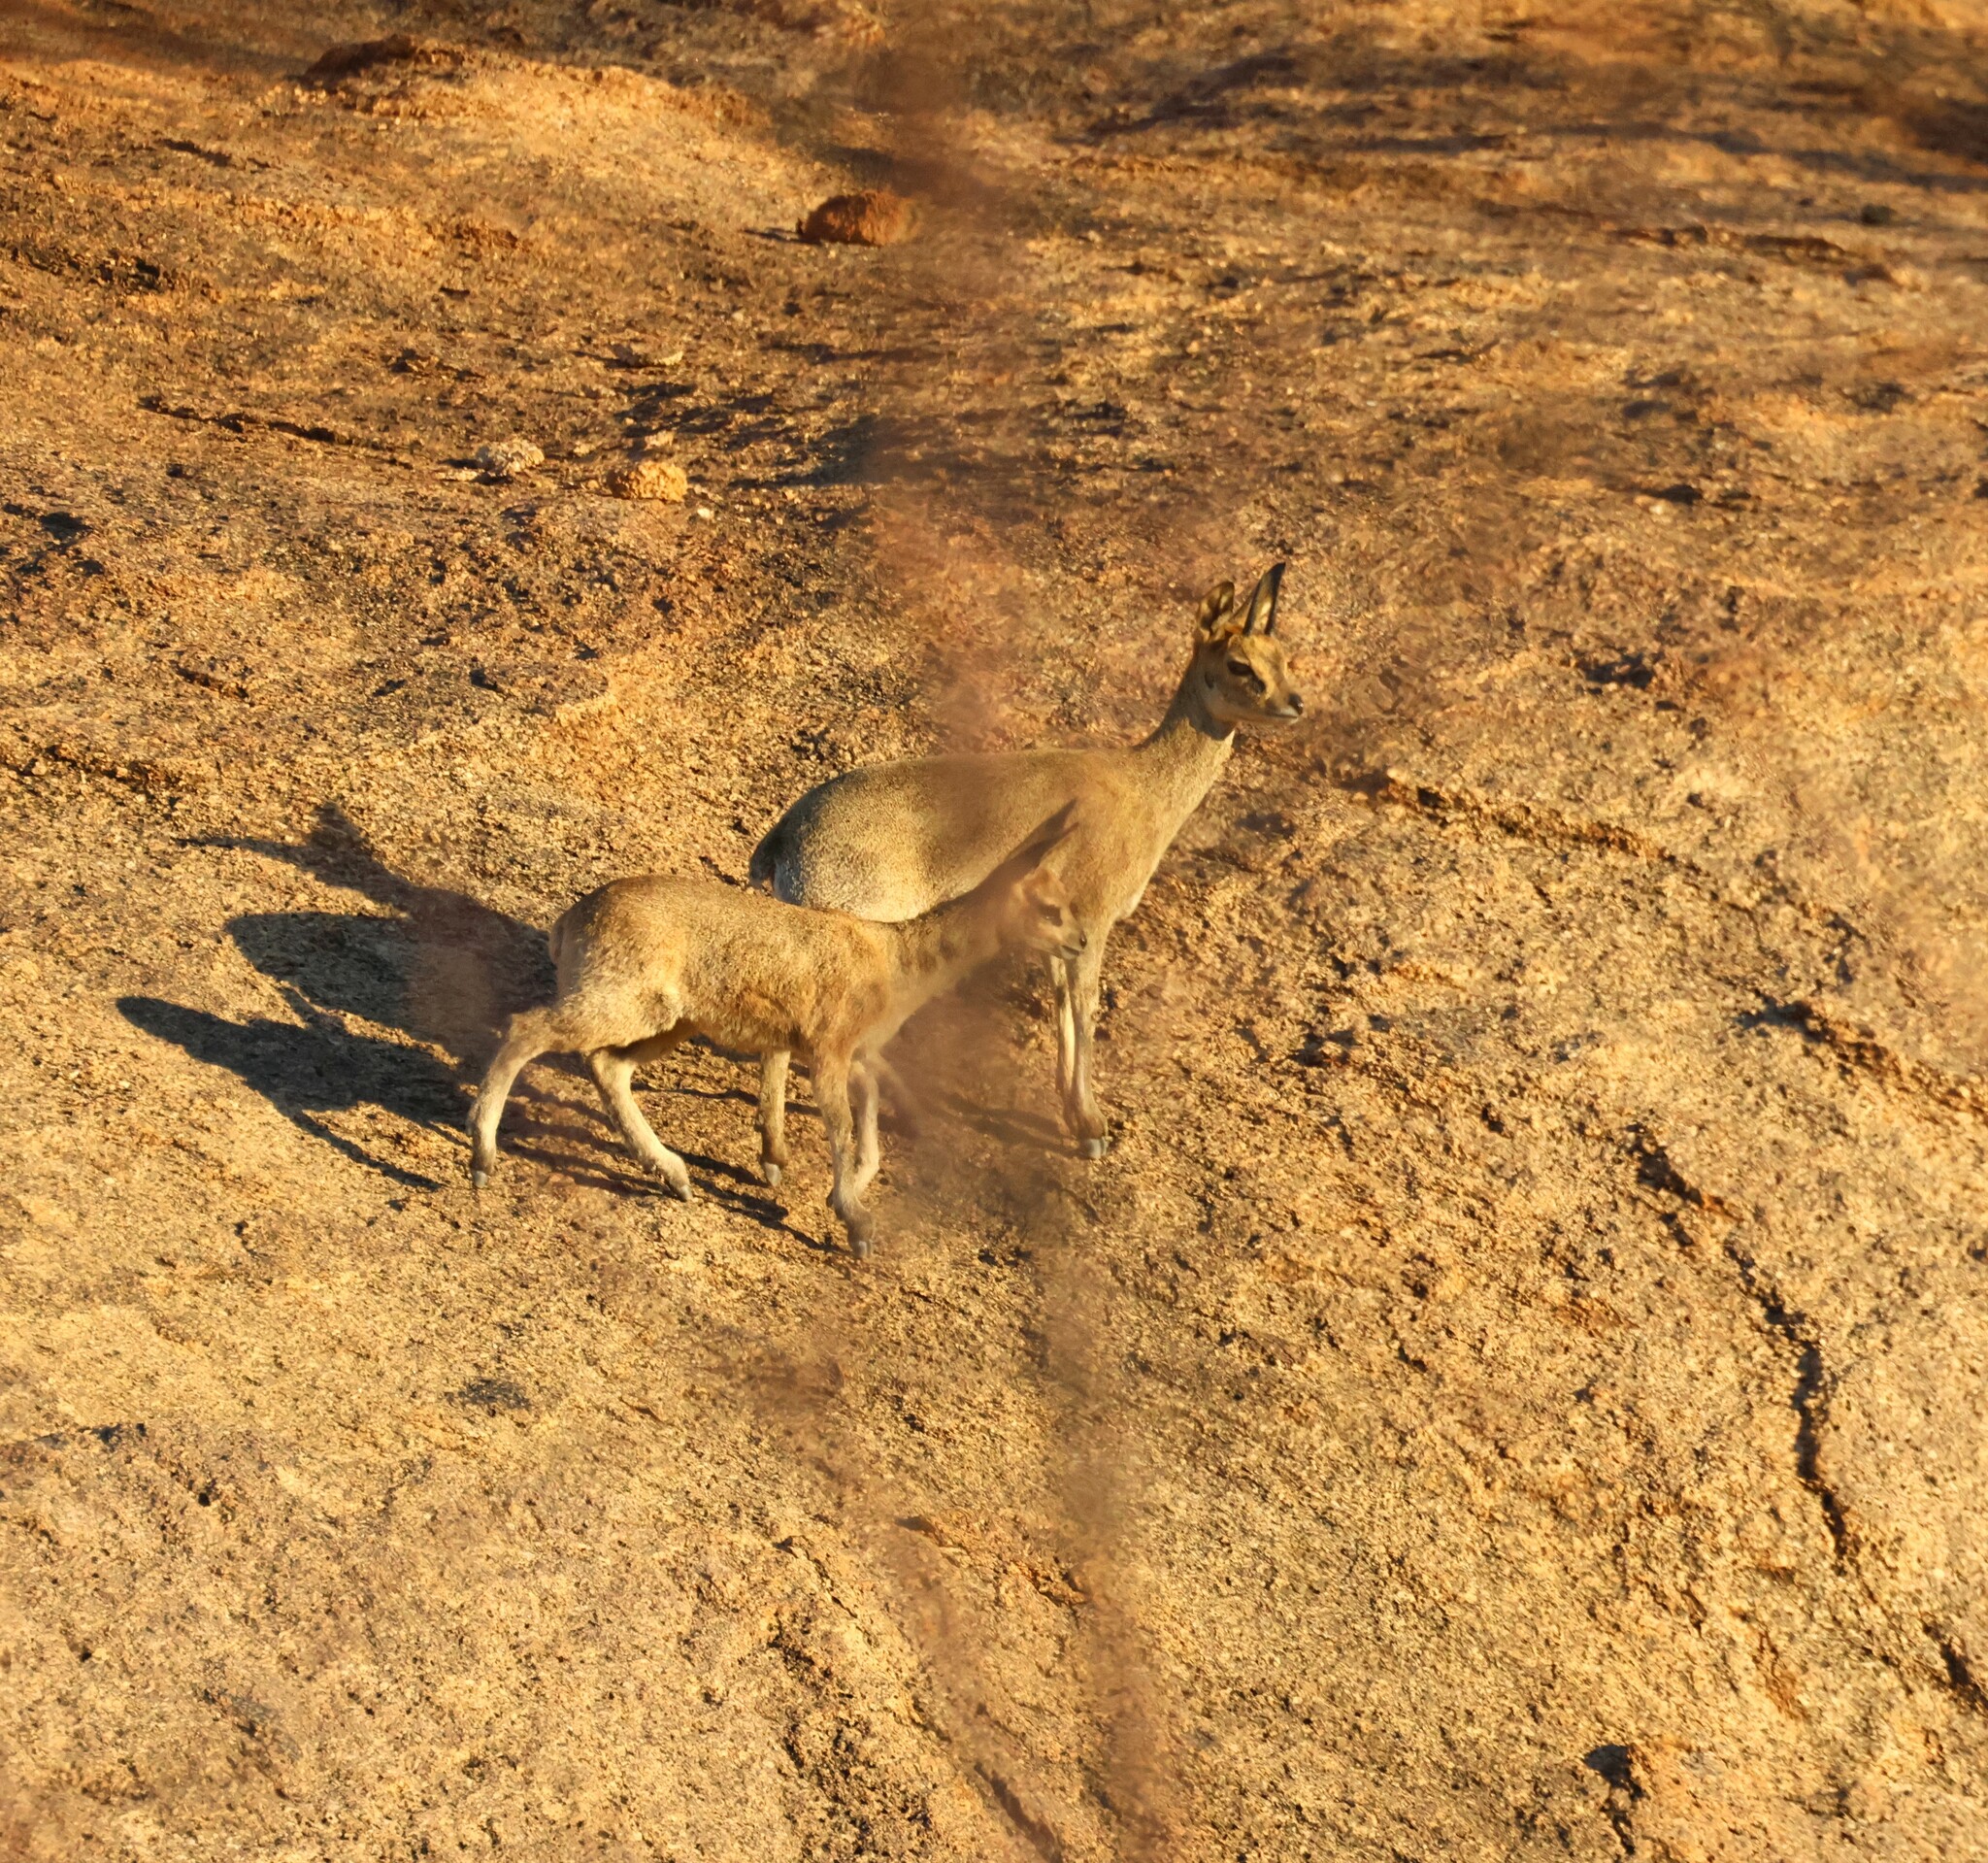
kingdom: Animalia
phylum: Chordata
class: Mammalia
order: Artiodactyla
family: Bovidae
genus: Oreotragus
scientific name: Oreotragus oreotragus
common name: Klipspringer
